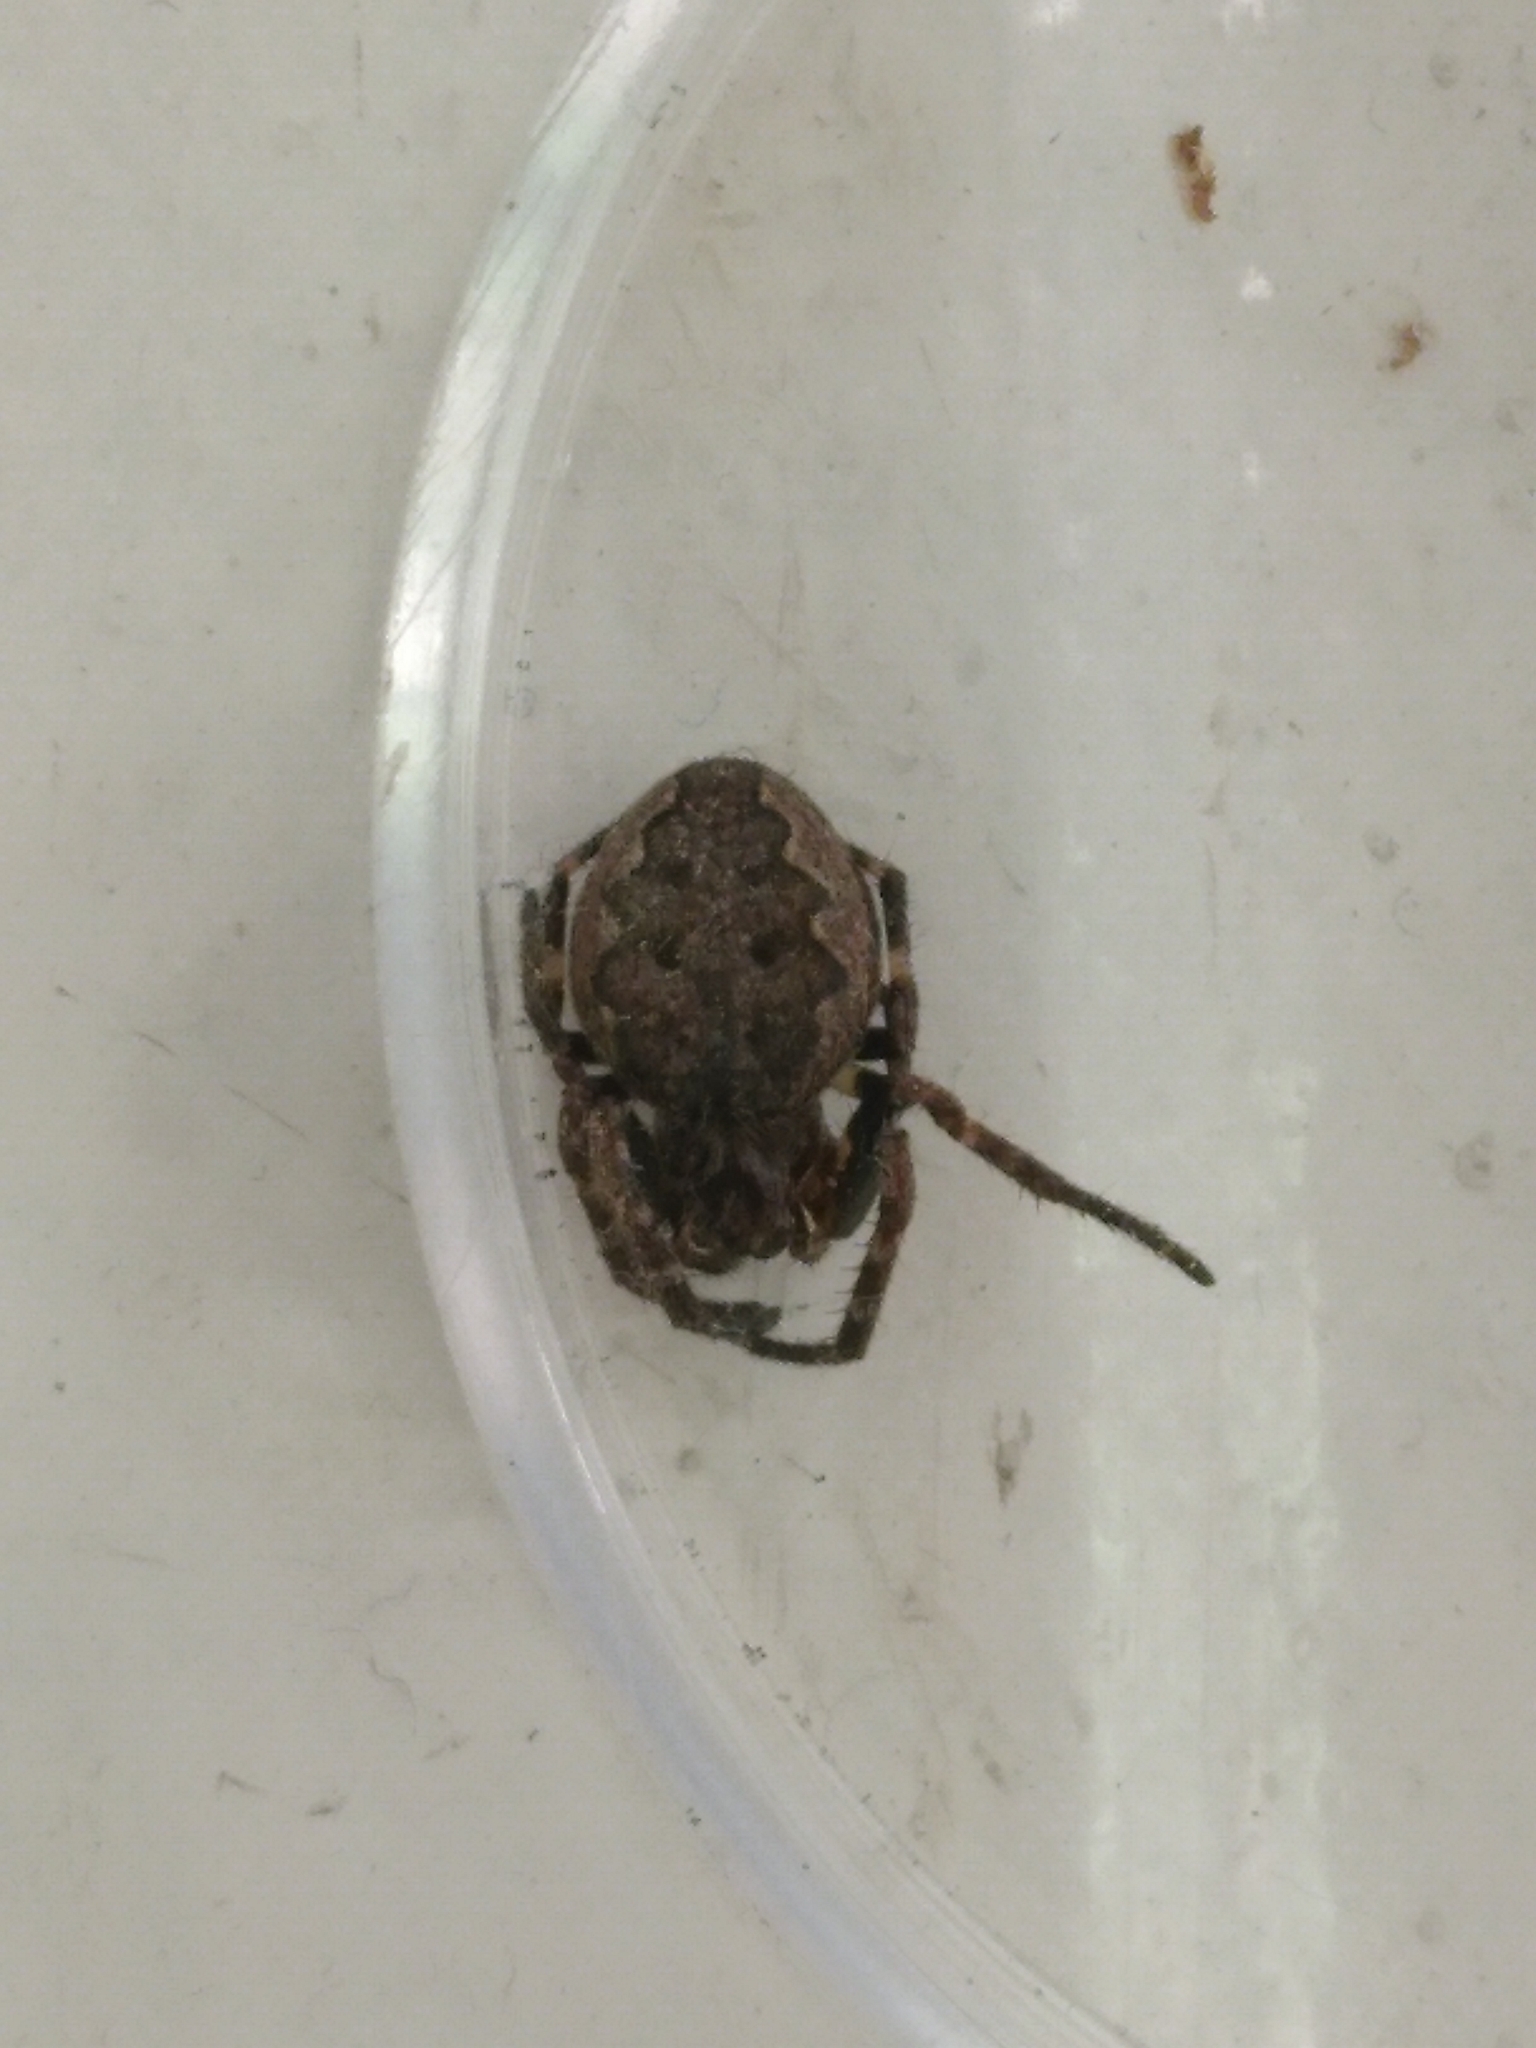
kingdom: Animalia
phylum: Arthropoda
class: Arachnida
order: Araneae
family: Araneidae
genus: Nuctenea
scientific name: Nuctenea umbratica
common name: Toad spider
